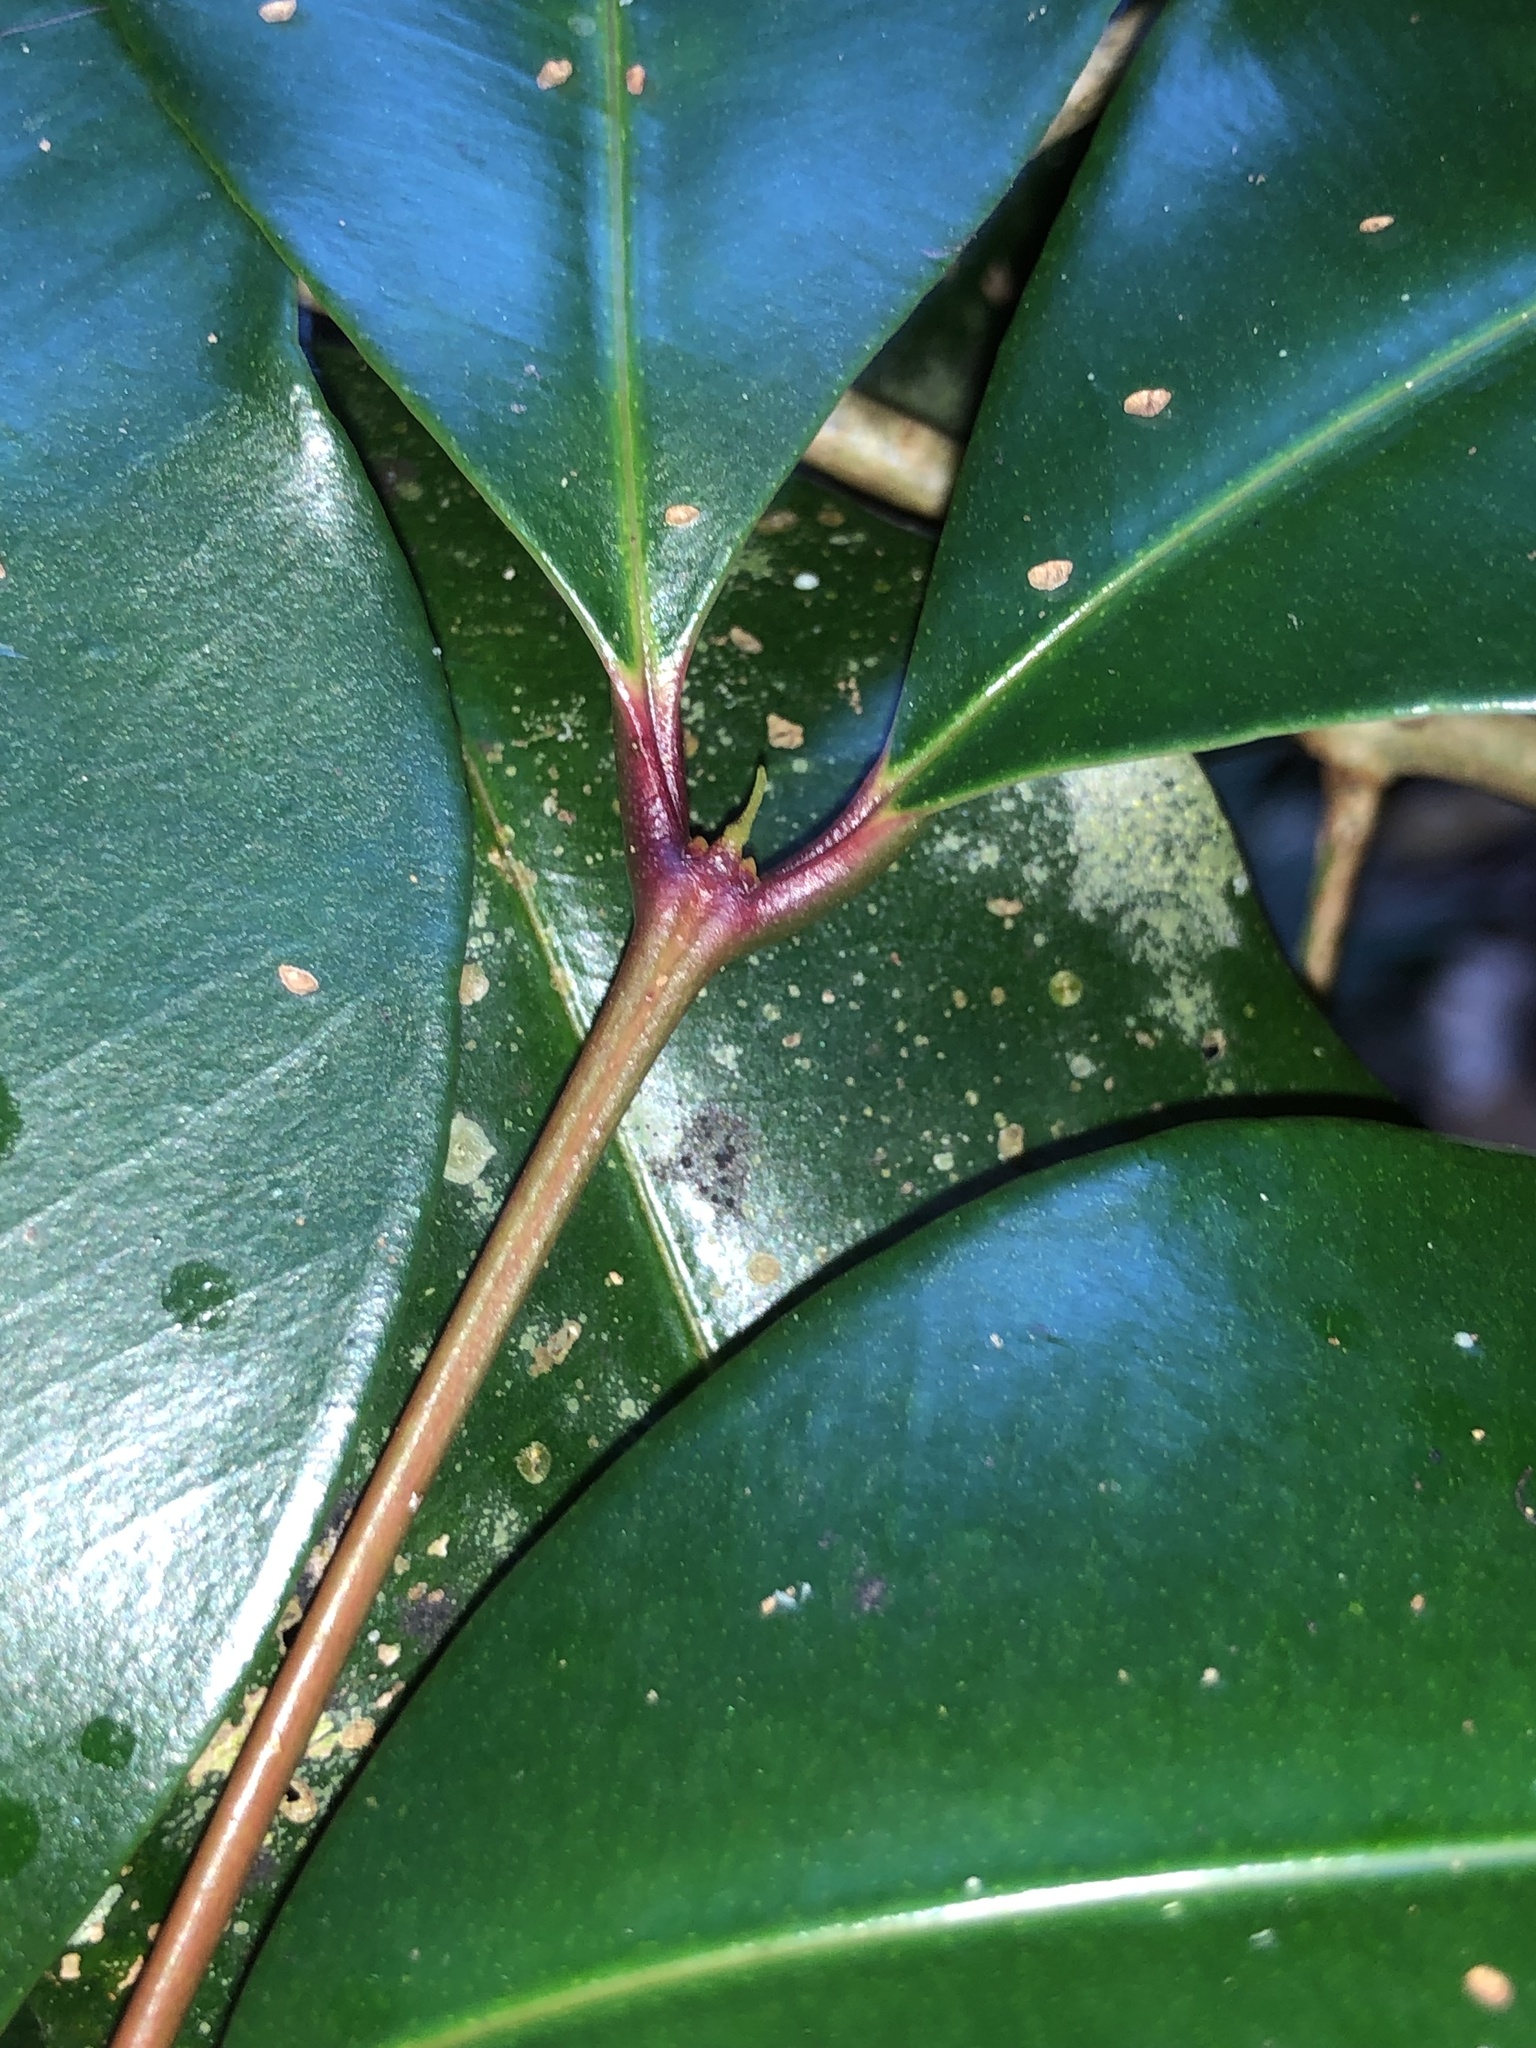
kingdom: Plantae
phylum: Tracheophyta
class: Magnoliopsida
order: Myrtales
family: Myrtaceae
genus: Syzygium
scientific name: Syzygium crebrinerve
